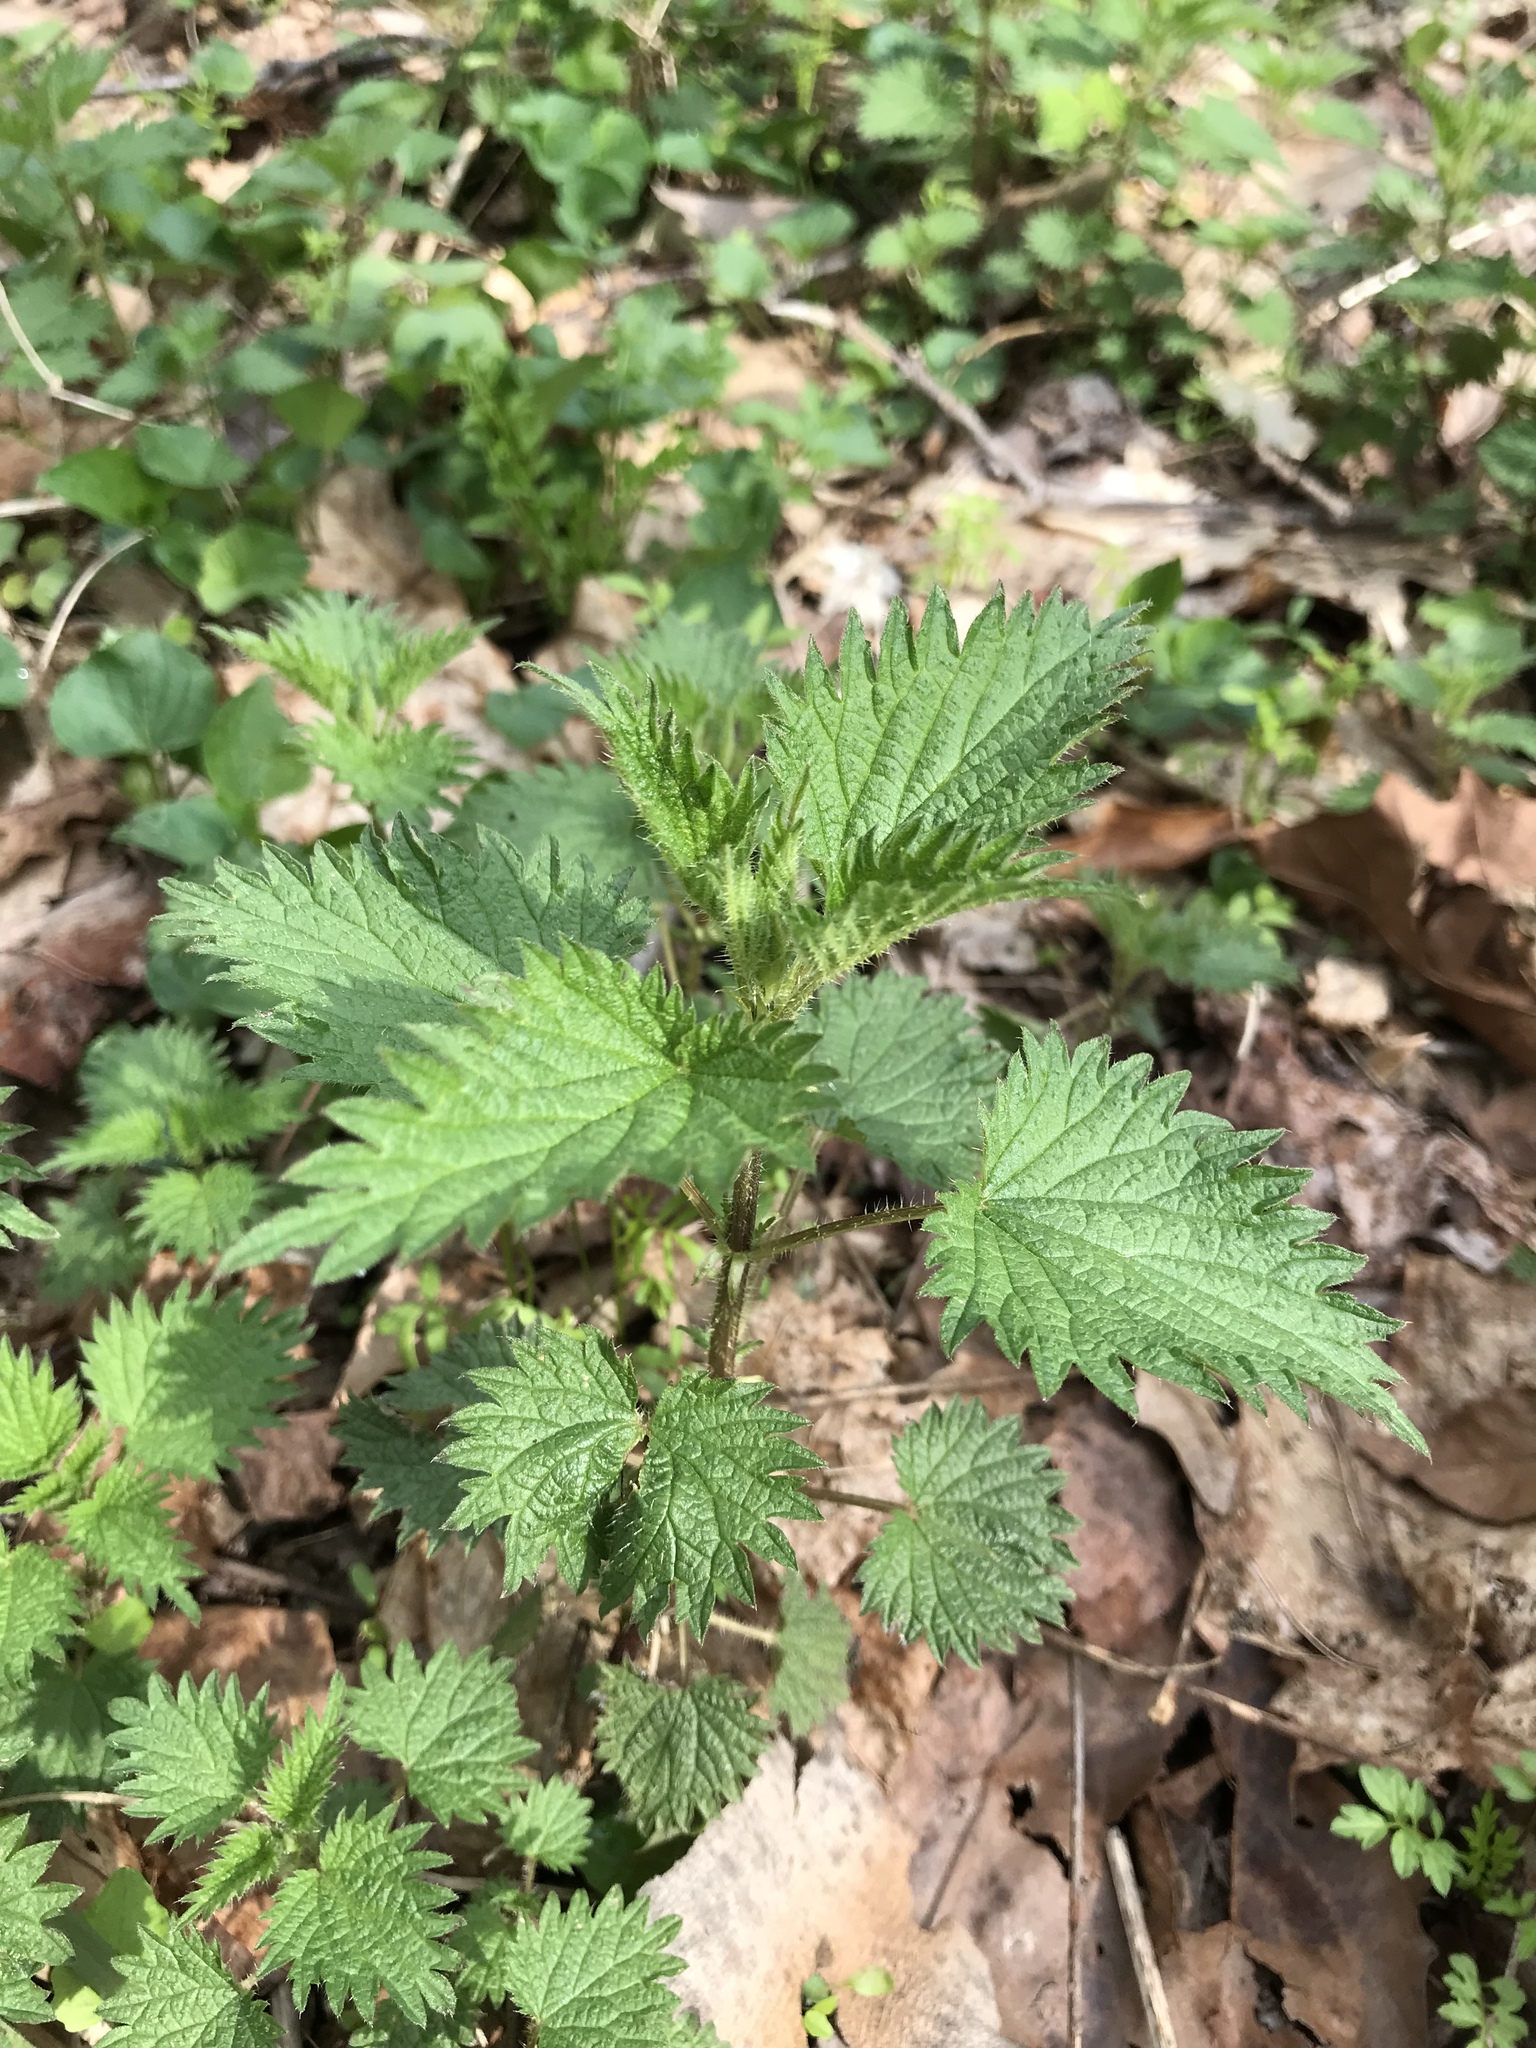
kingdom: Plantae
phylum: Tracheophyta
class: Magnoliopsida
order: Rosales
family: Urticaceae
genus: Urtica
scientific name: Urtica dioica
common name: Common nettle
